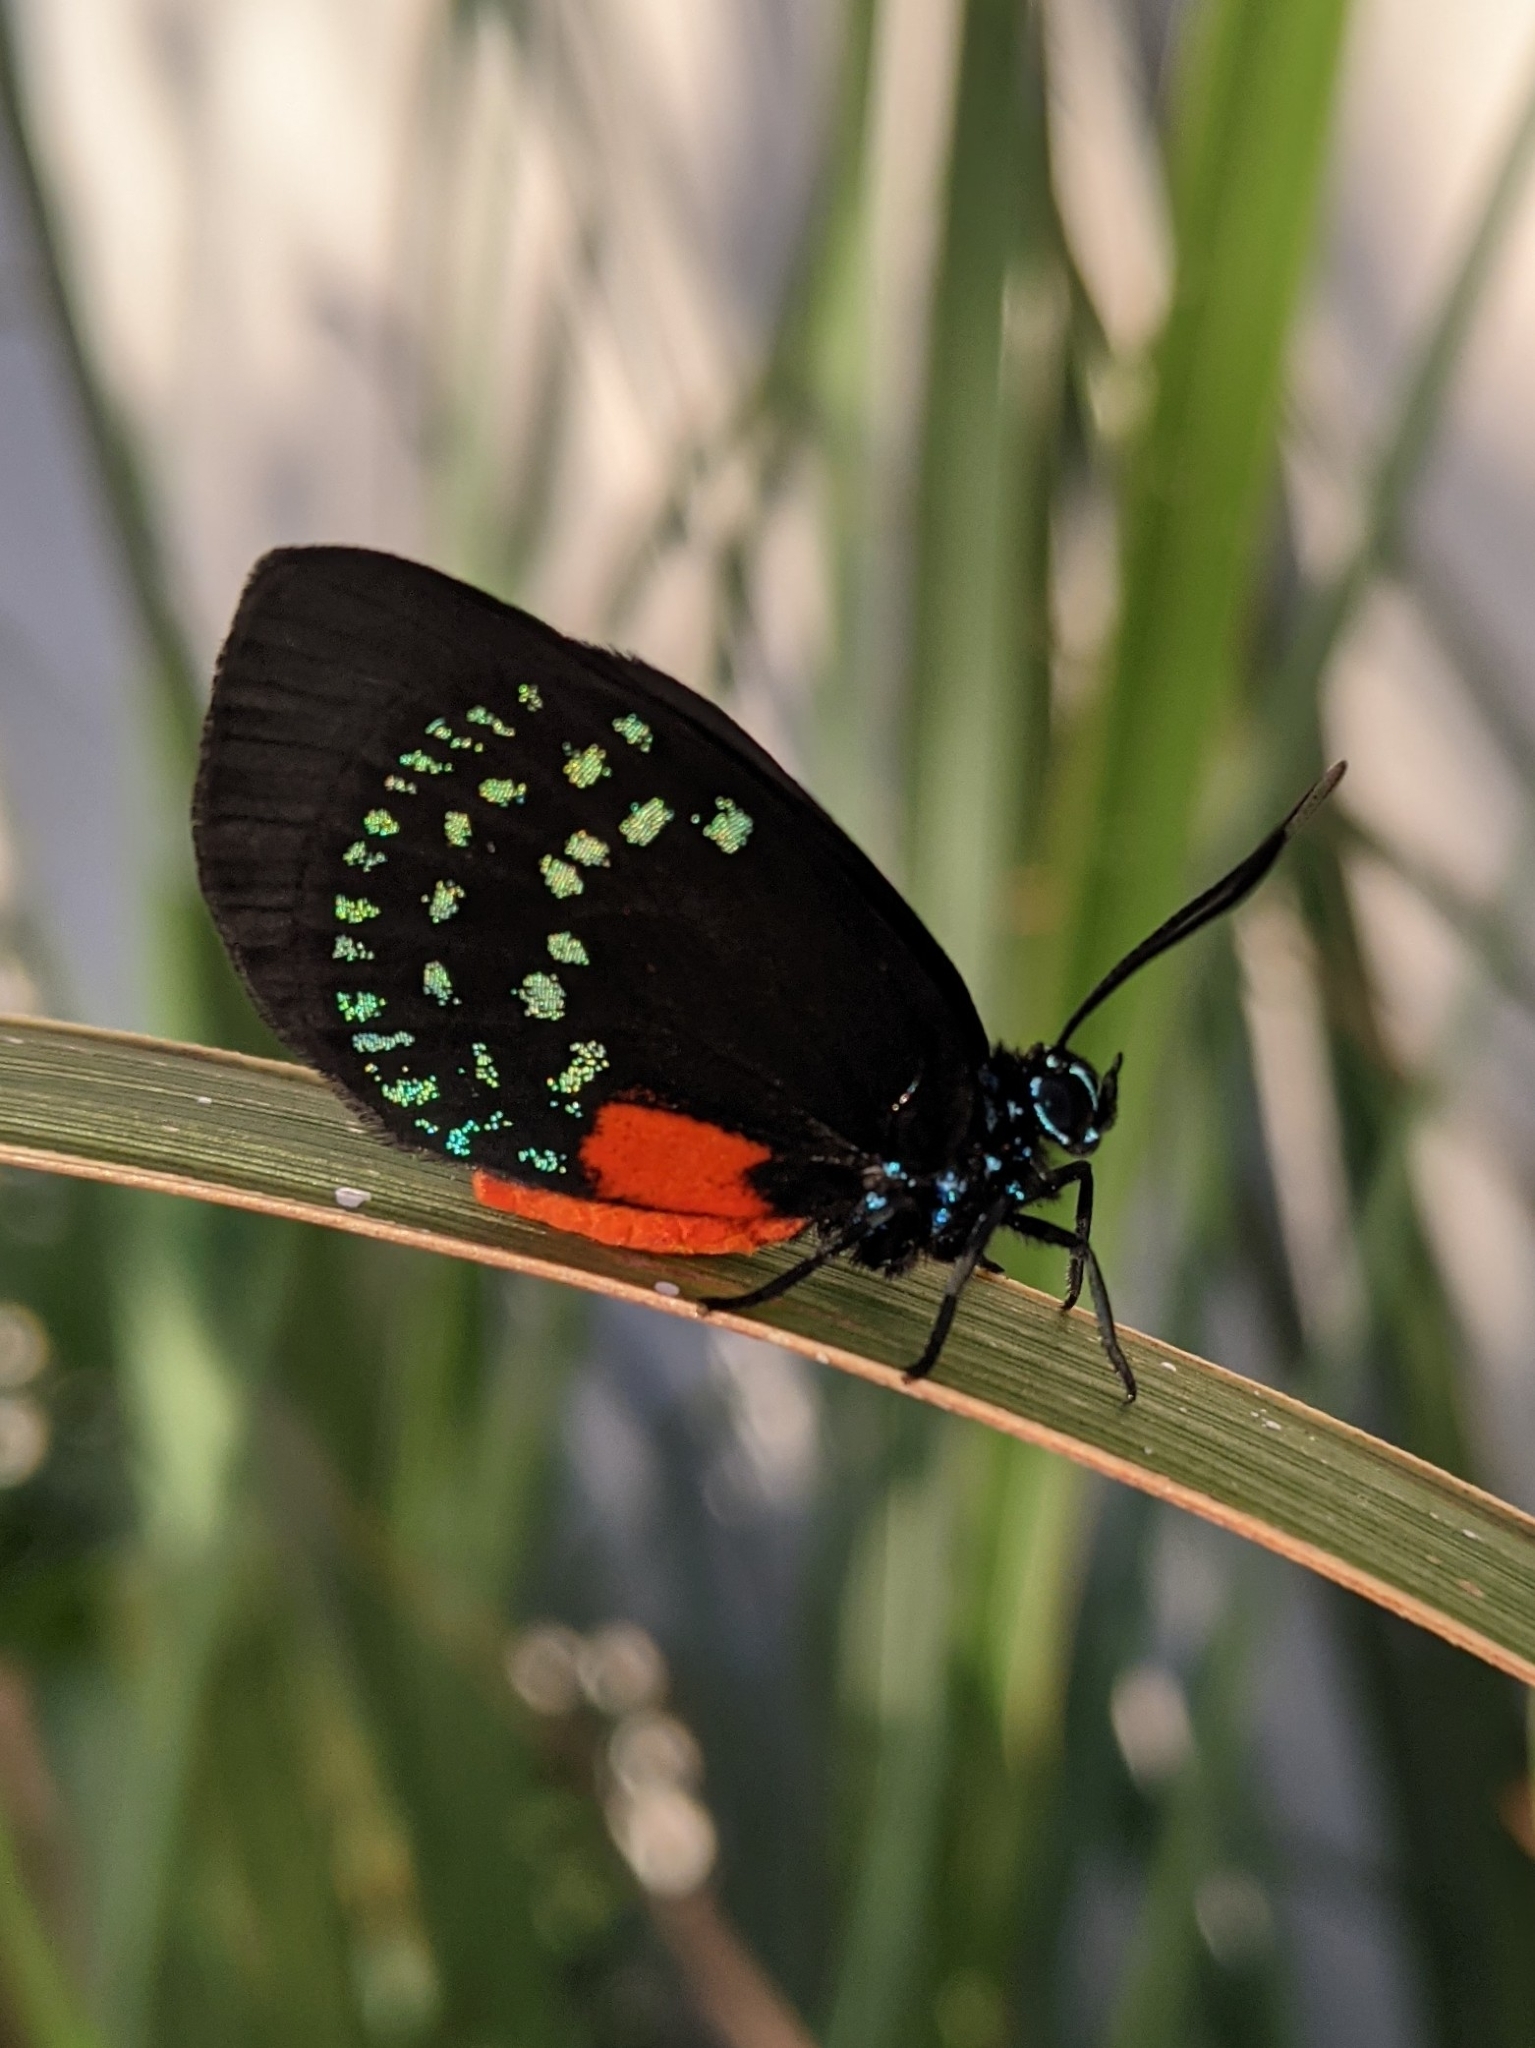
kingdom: Animalia
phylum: Arthropoda
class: Insecta
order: Lepidoptera
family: Lycaenidae
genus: Eumaeus
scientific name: Eumaeus atala
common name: Atala
